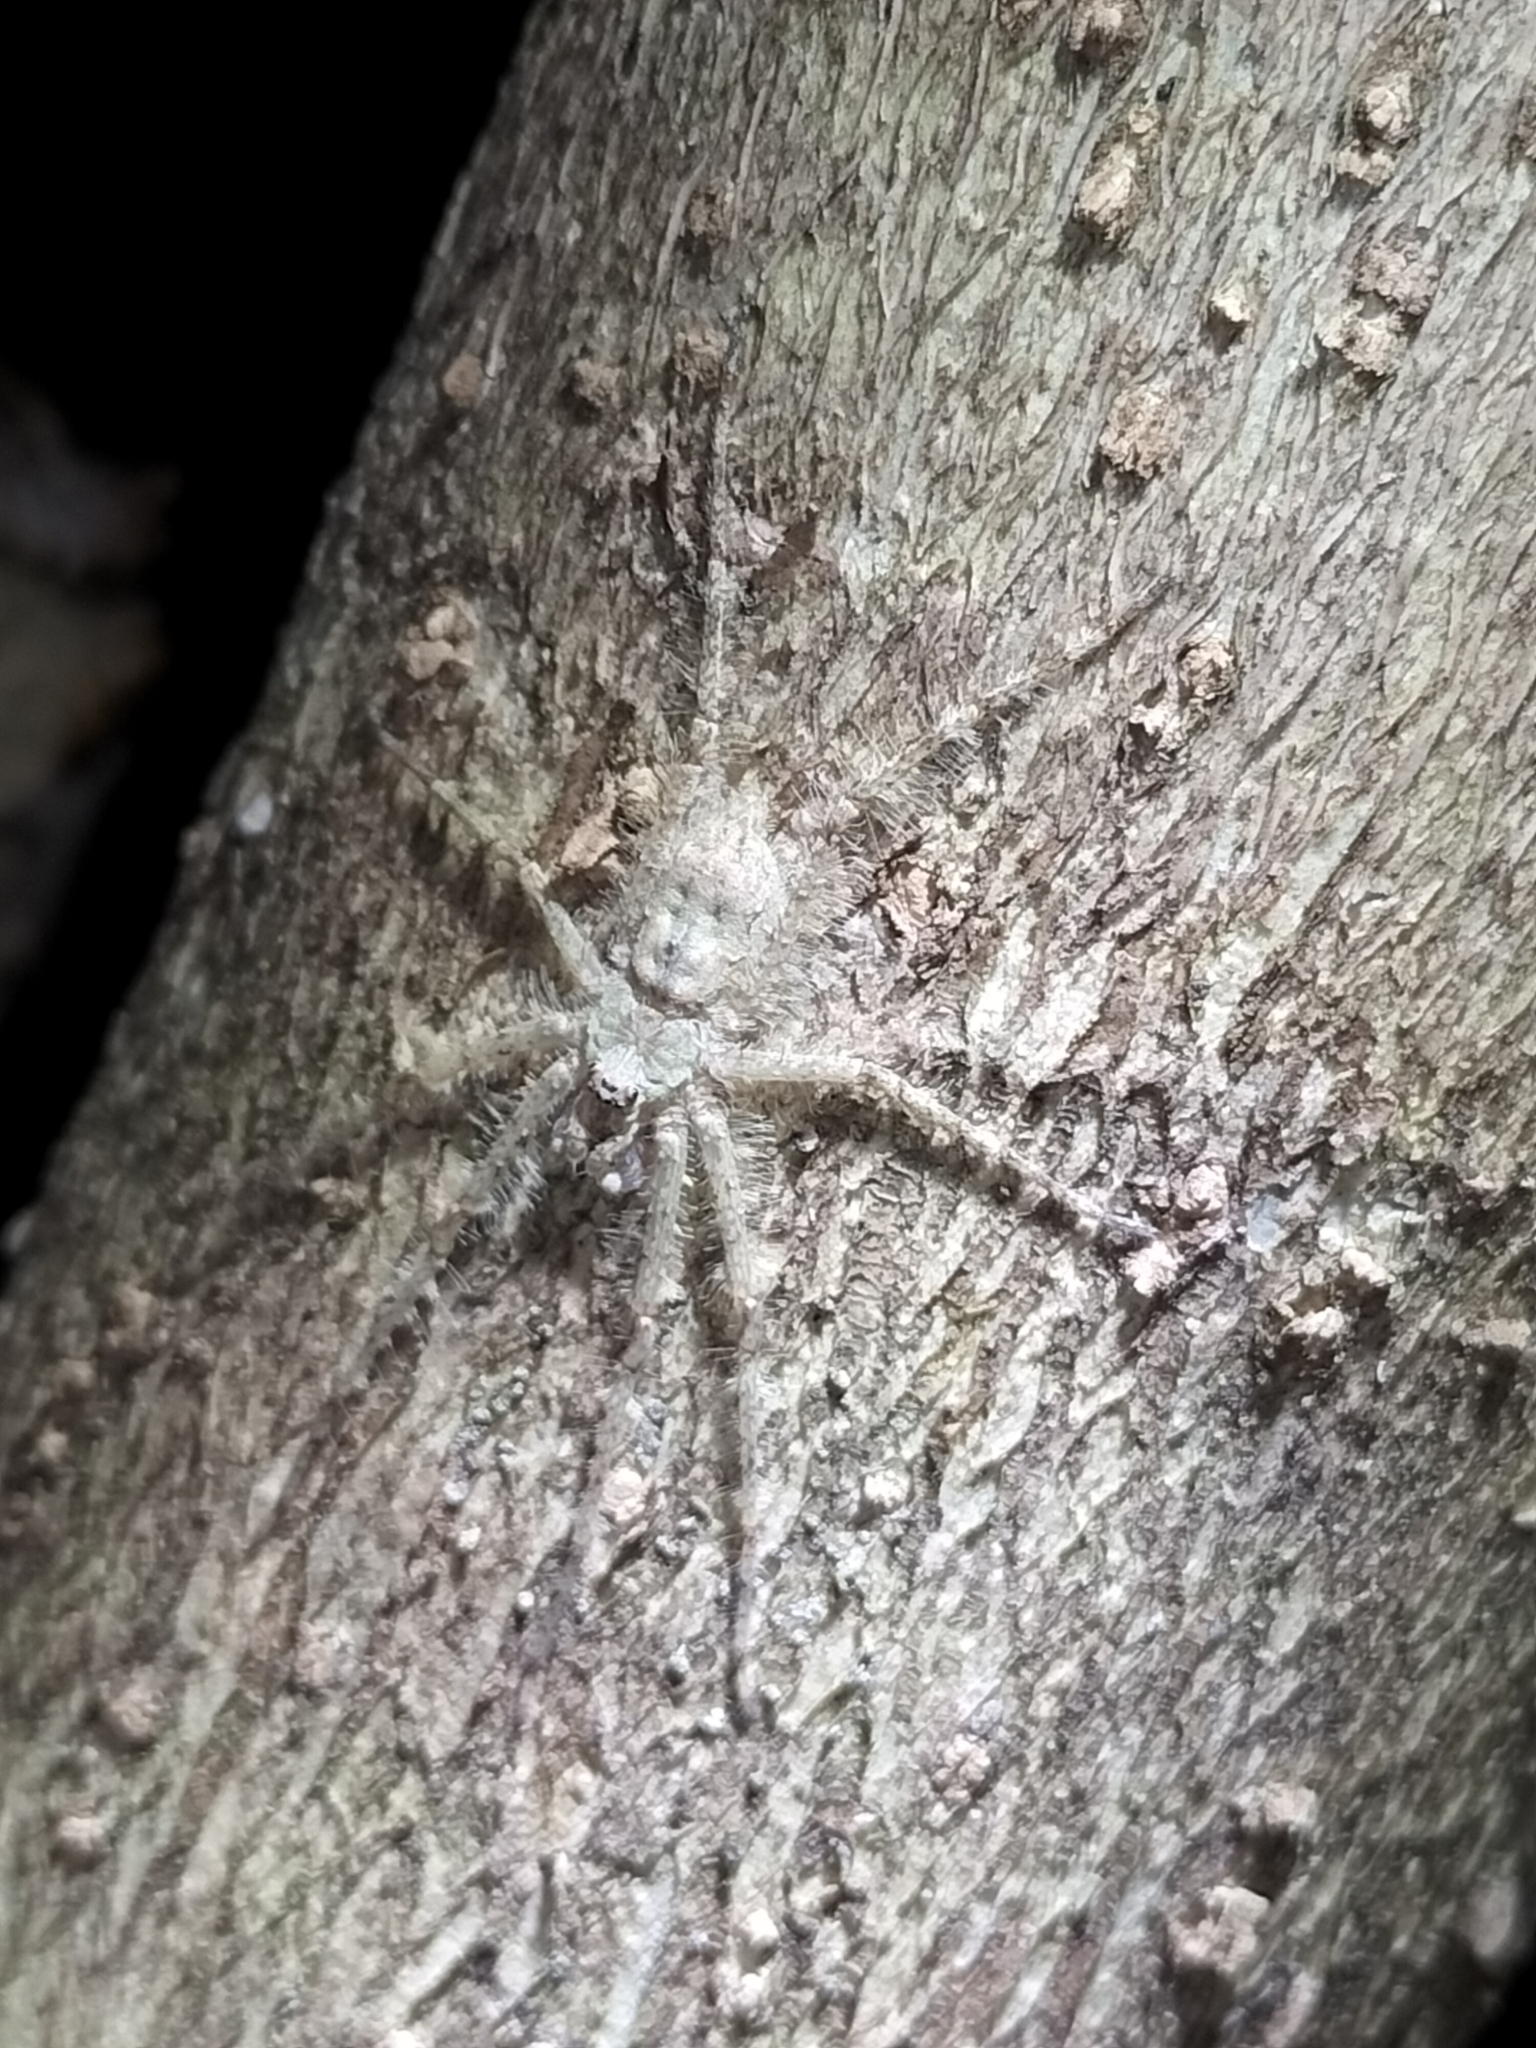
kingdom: Animalia
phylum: Arthropoda
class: Arachnida
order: Araneae
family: Sparassidae
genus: Pandercetes
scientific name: Pandercetes gracilis
